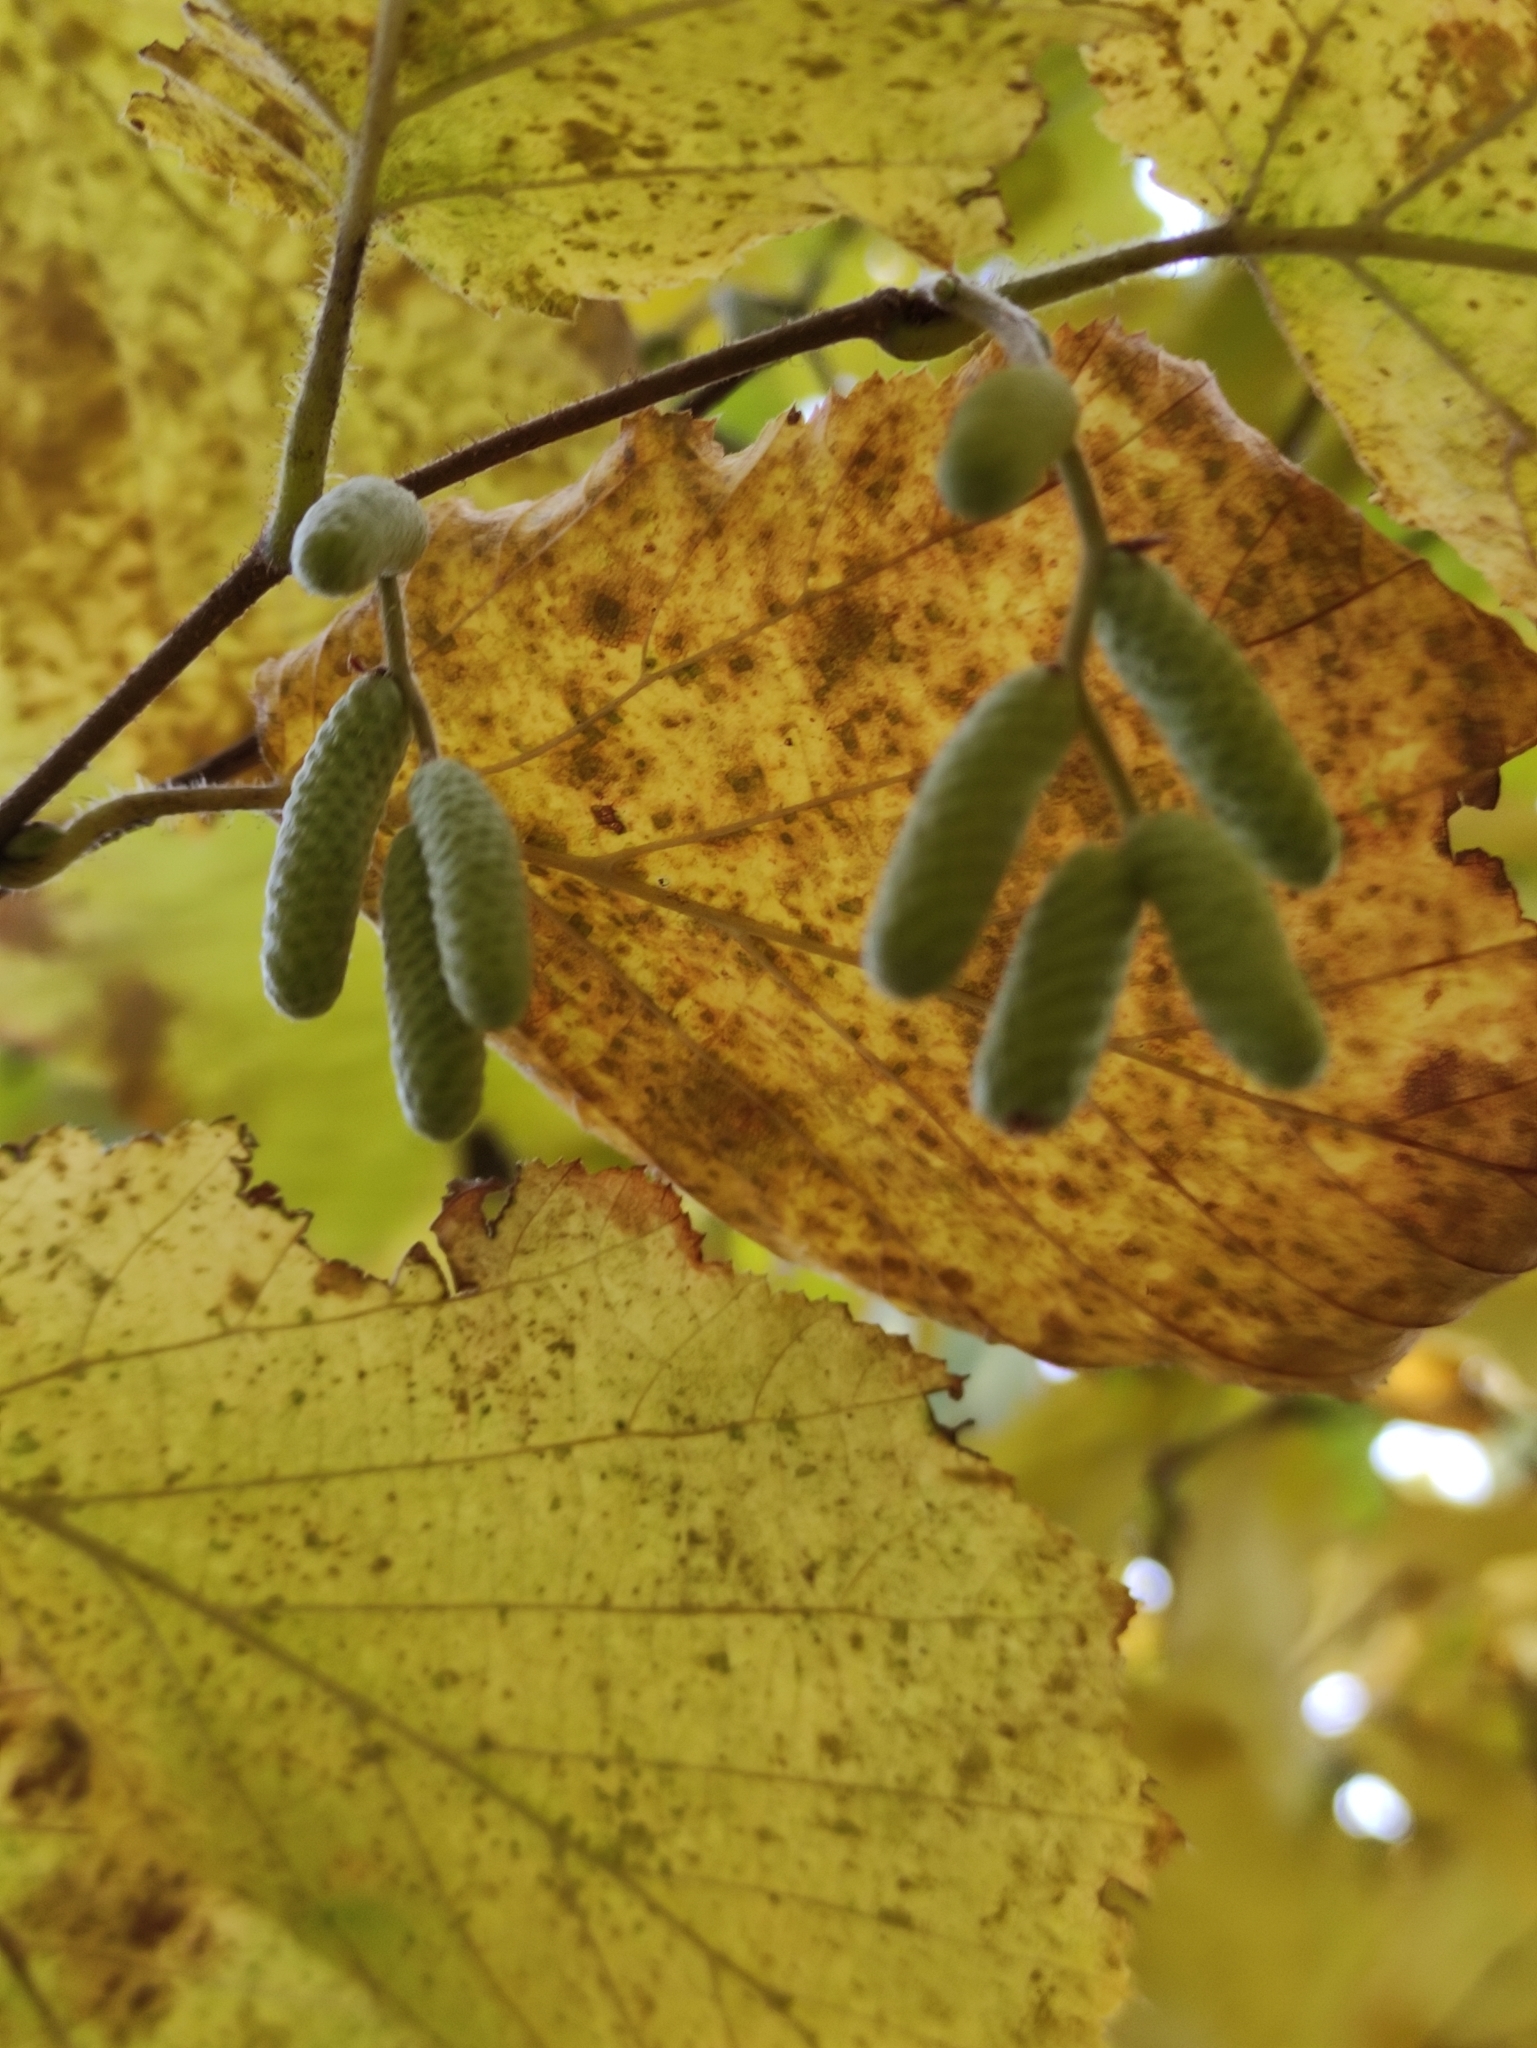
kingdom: Plantae
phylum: Tracheophyta
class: Magnoliopsida
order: Fagales
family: Betulaceae
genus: Corylus
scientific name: Corylus avellana
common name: European hazel
